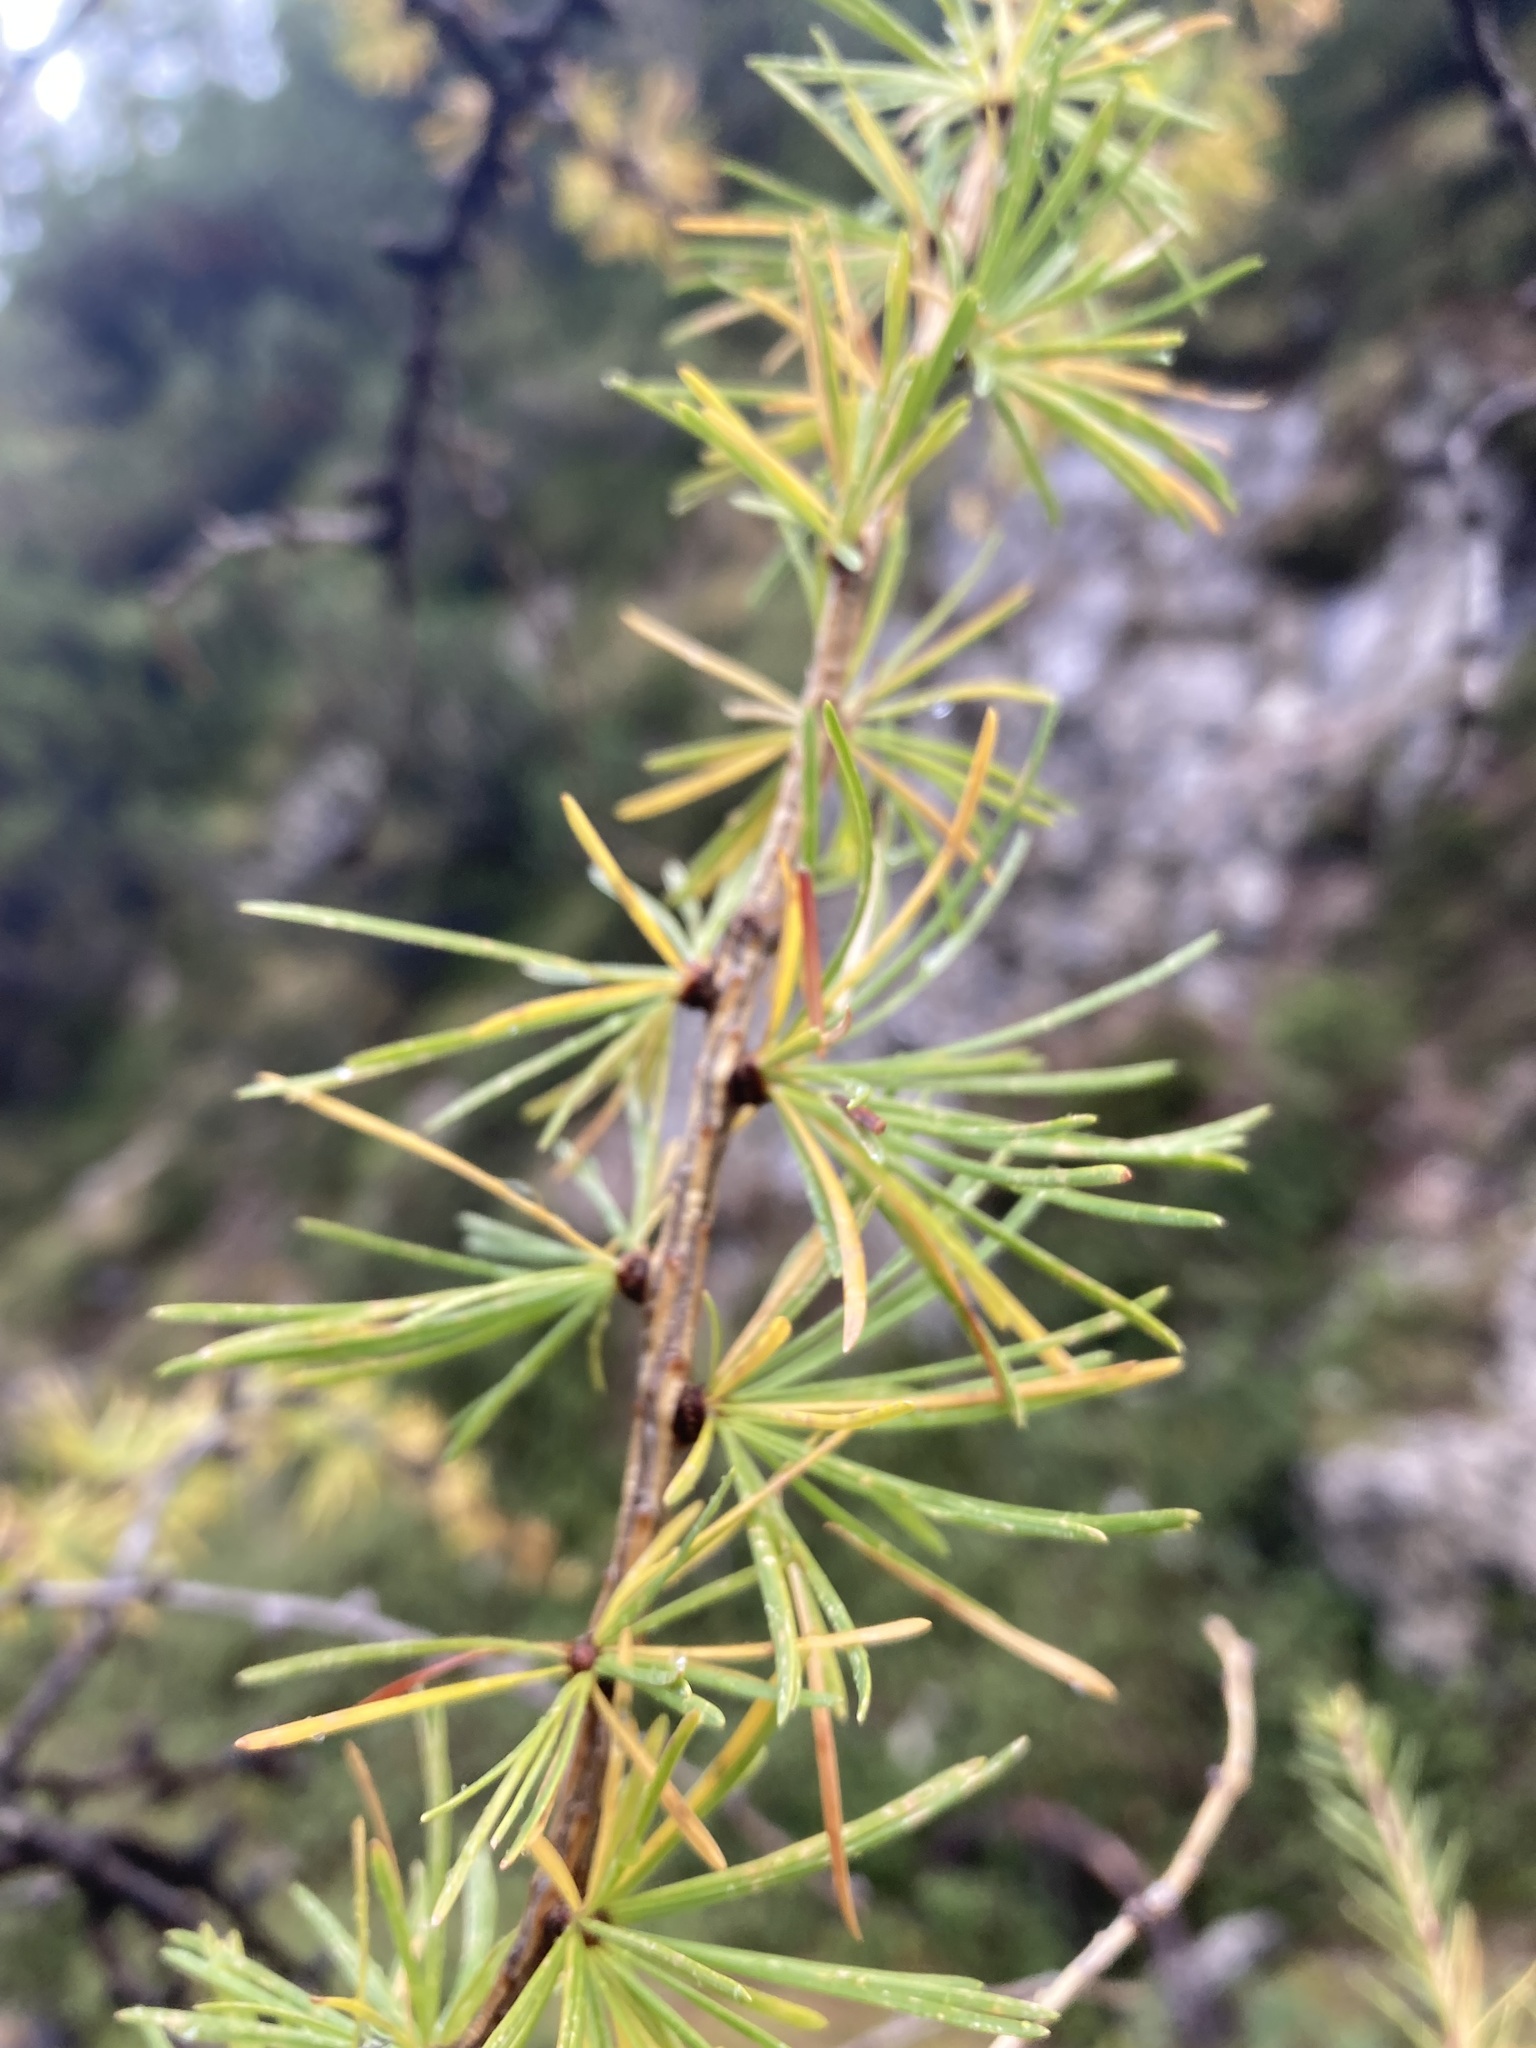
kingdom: Plantae
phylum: Tracheophyta
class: Pinopsida
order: Pinales
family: Pinaceae
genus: Larix
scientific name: Larix decidua
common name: European larch
